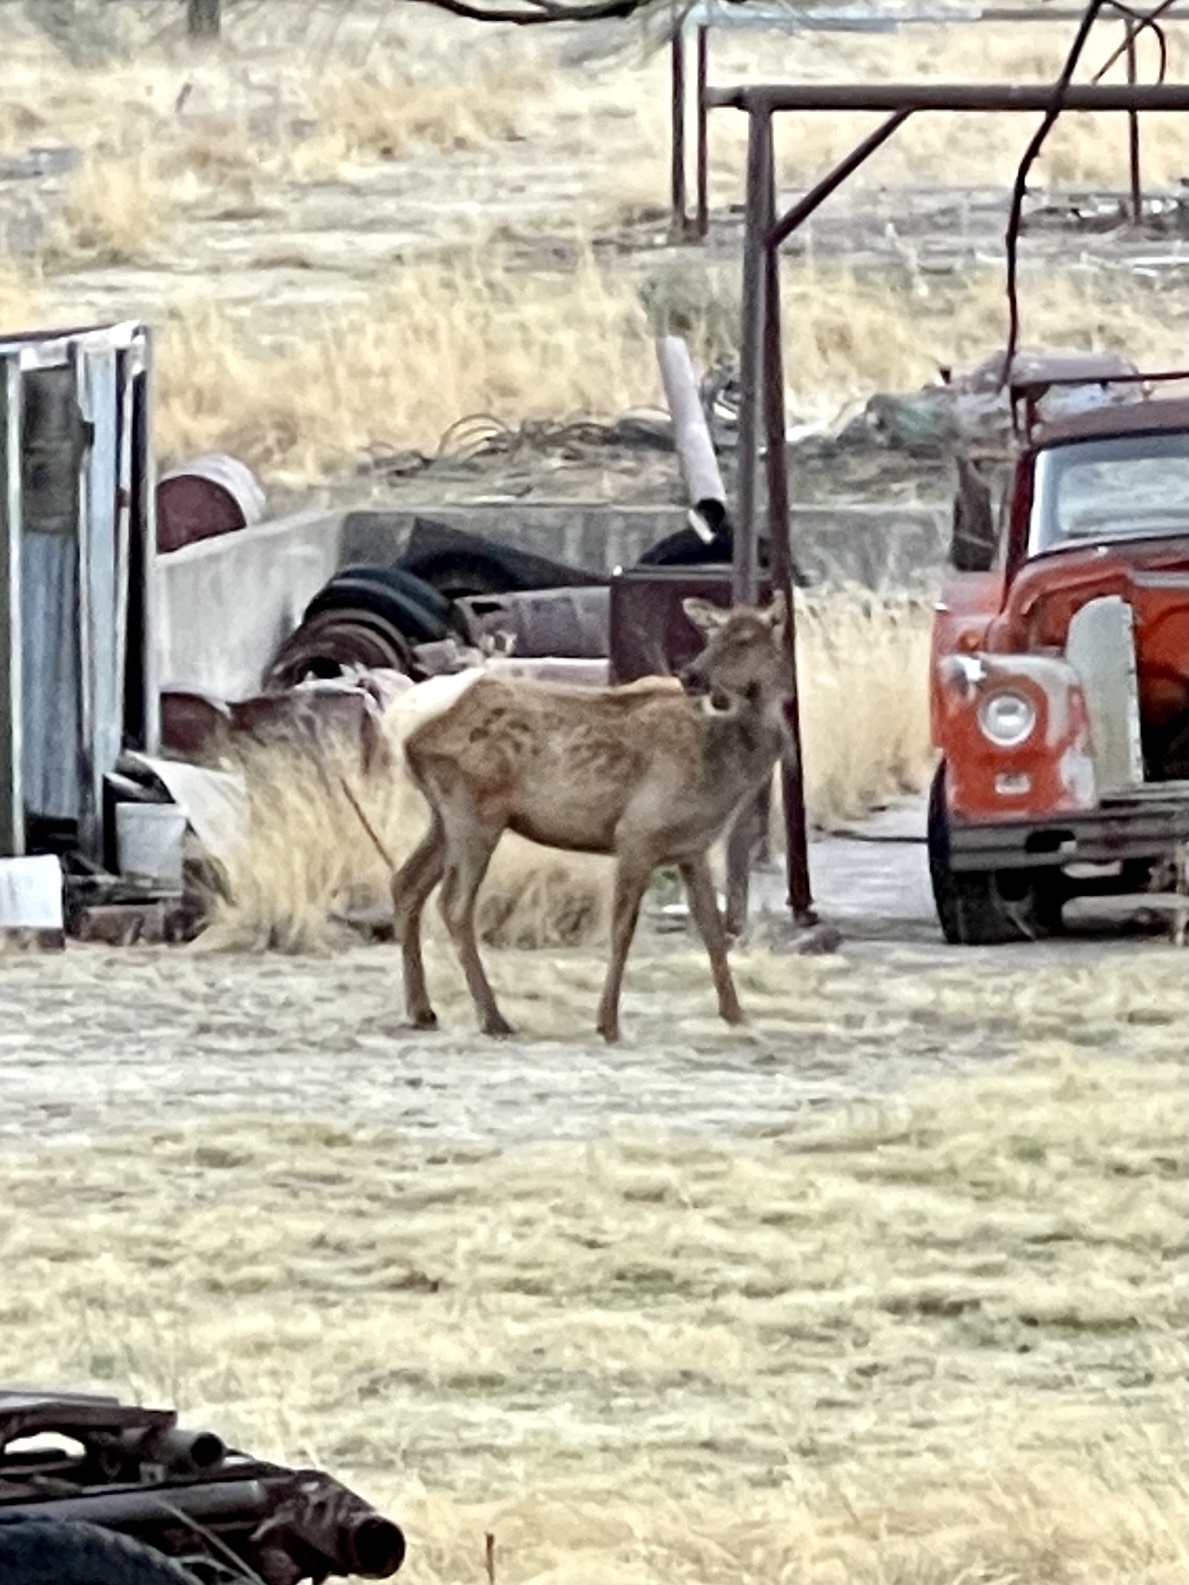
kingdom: Animalia
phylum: Chordata
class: Mammalia
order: Artiodactyla
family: Cervidae
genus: Cervus
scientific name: Cervus elaphus
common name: Red deer
